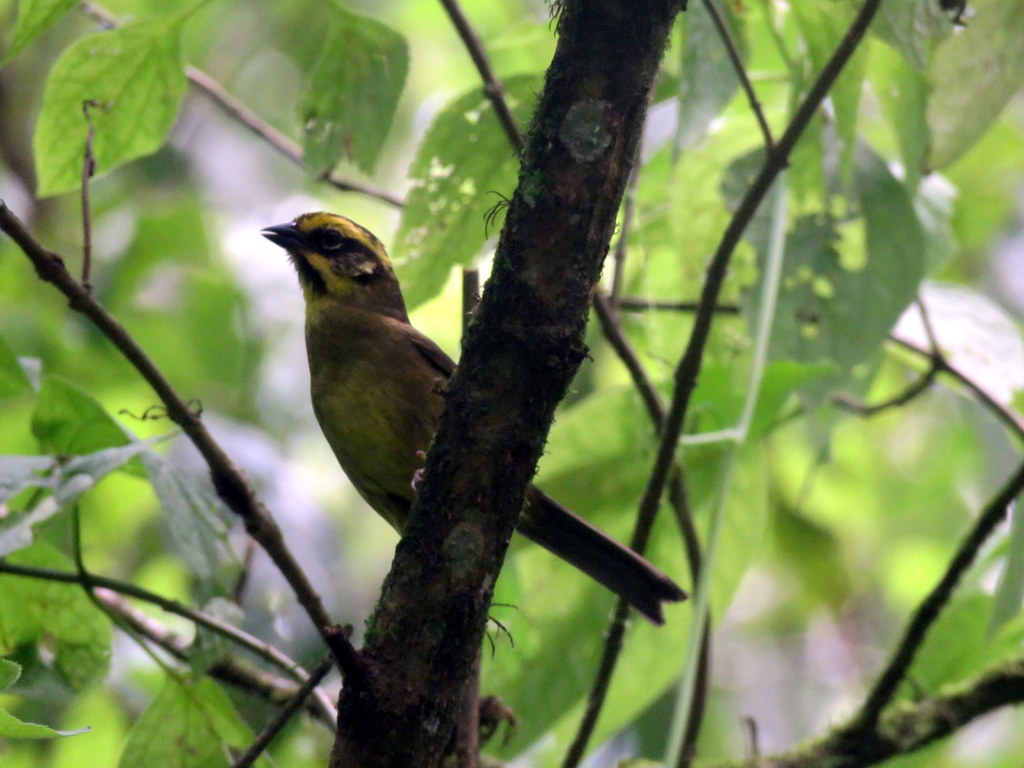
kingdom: Animalia
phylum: Chordata
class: Aves
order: Passeriformes
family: Passerellidae
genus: Atlapetes
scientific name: Atlapetes citrinellus
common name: Yellow-striped brushfinch
